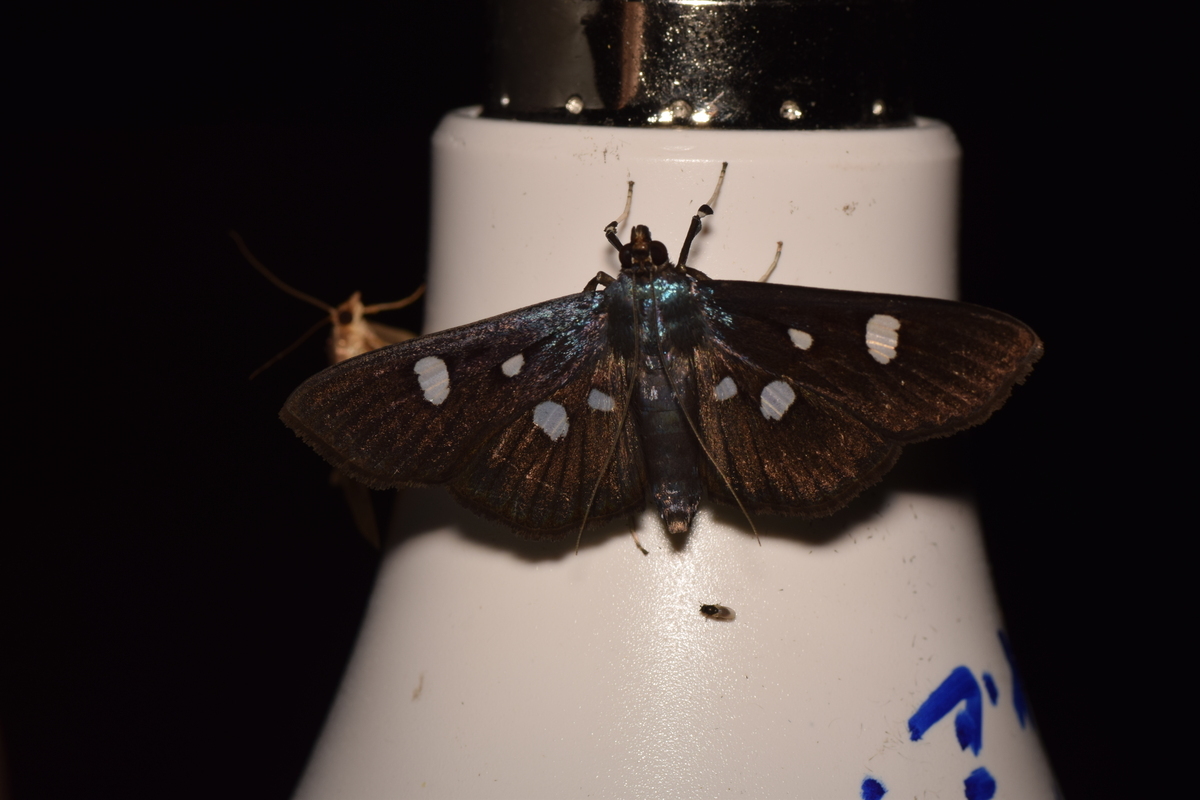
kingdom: Animalia
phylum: Arthropoda
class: Insecta
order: Lepidoptera
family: Crambidae
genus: Pygospila
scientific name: Pygospila
